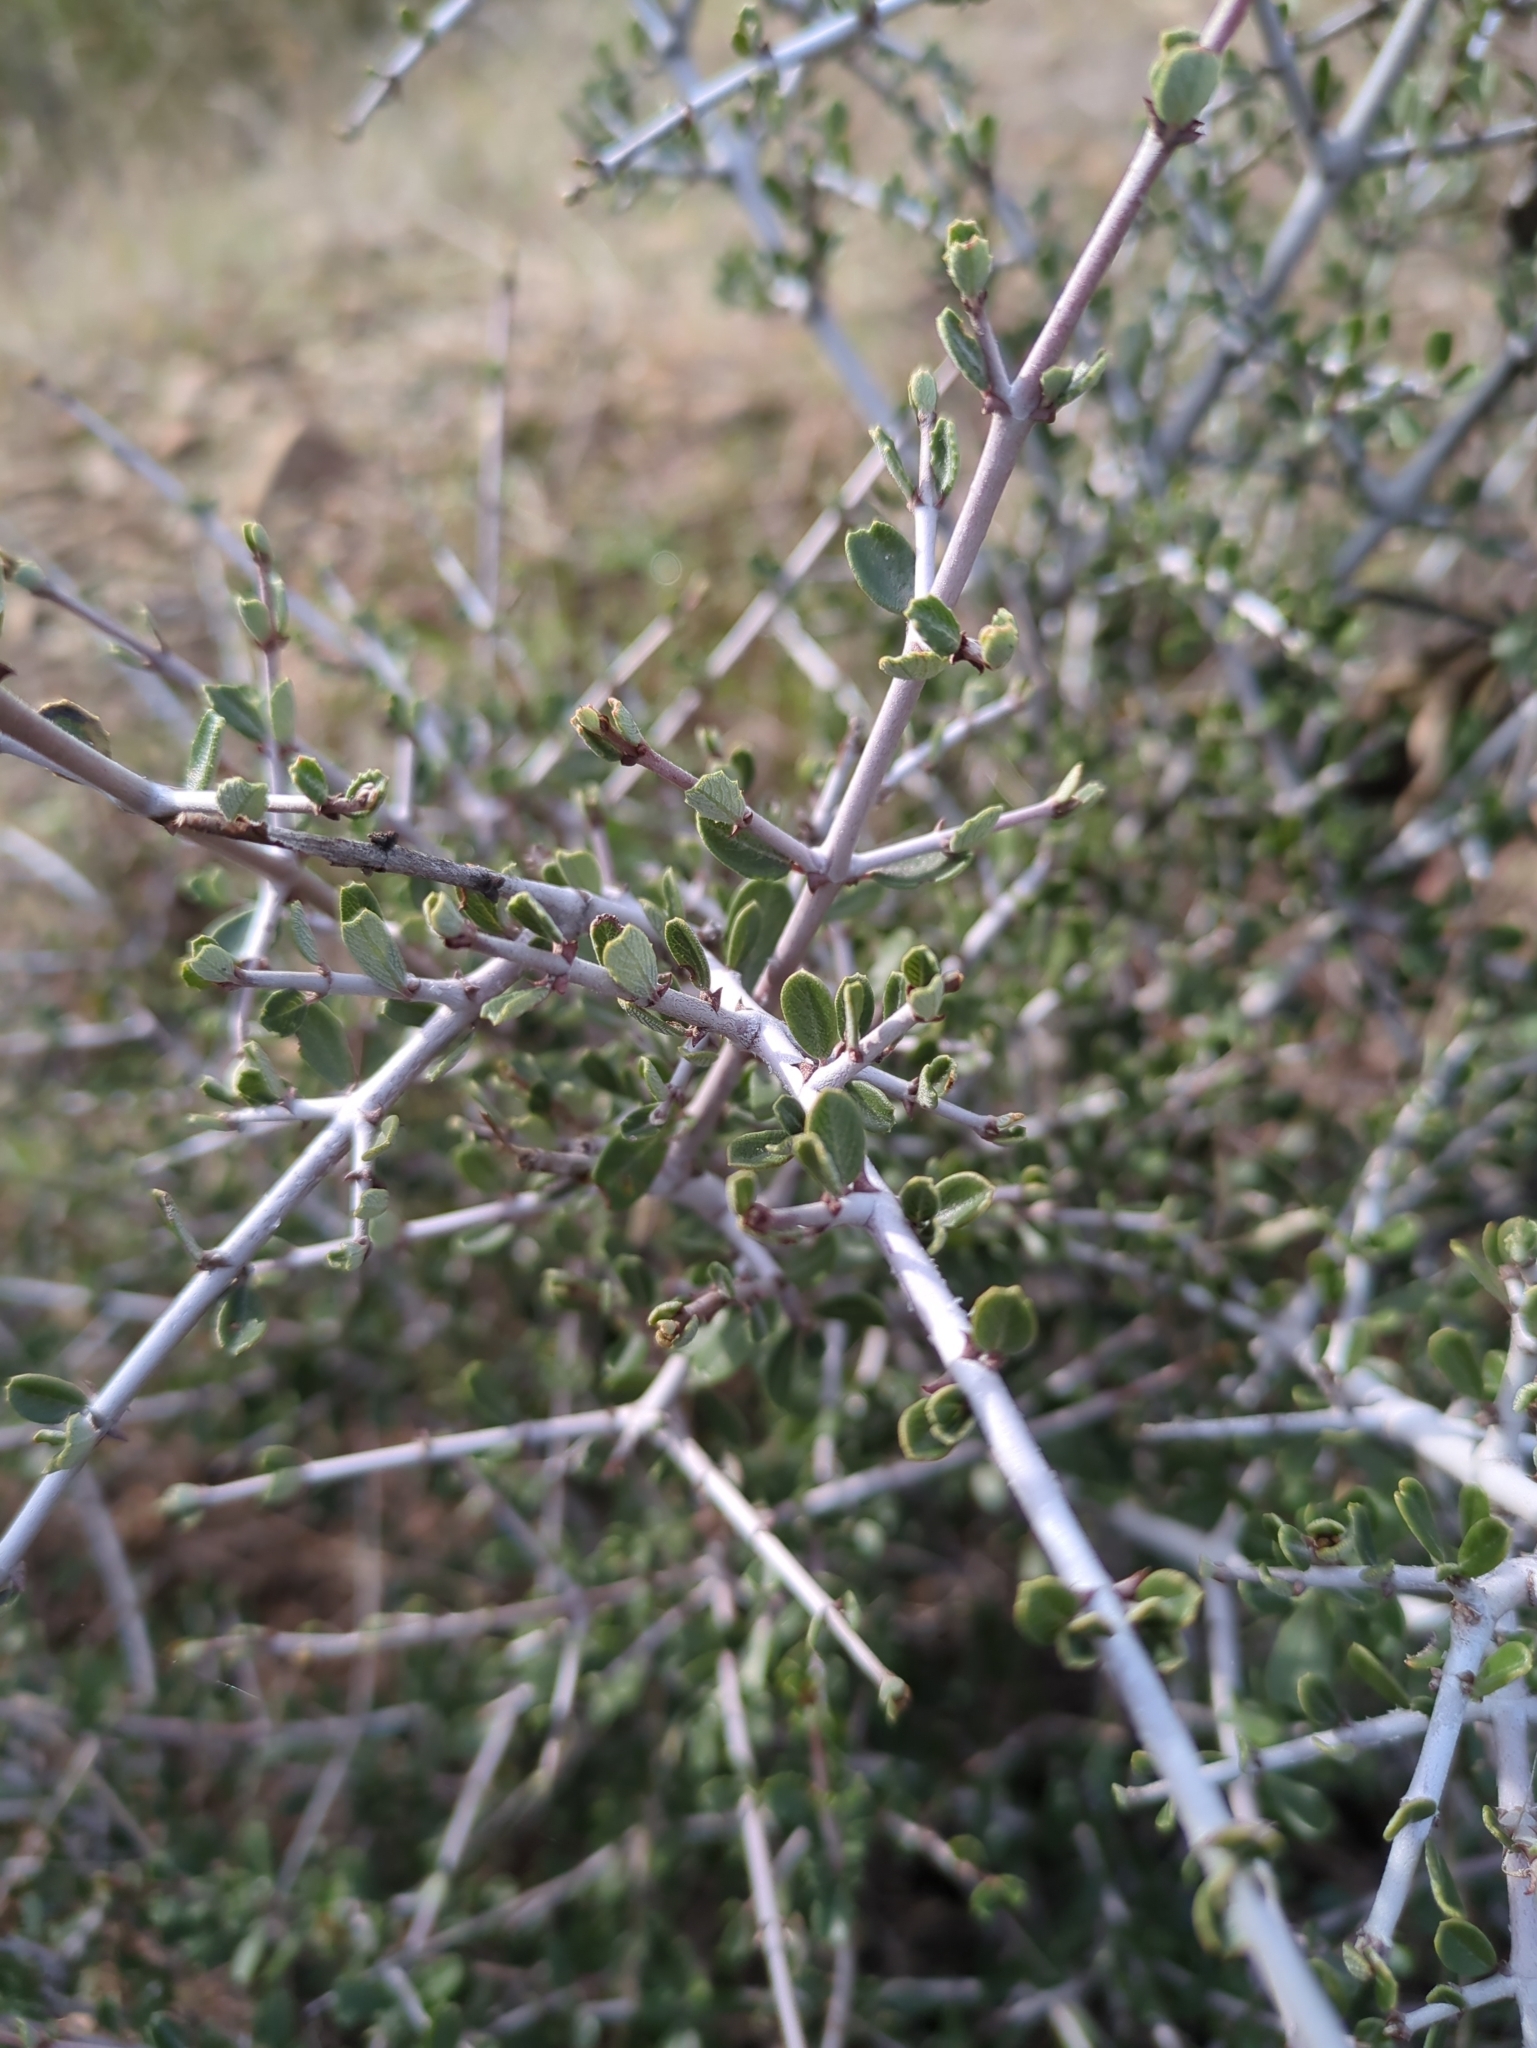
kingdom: Plantae
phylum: Tracheophyta
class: Magnoliopsida
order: Rosales
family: Rhamnaceae
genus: Ceanothus
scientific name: Ceanothus cuneatus
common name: Cuneate ceanothus
